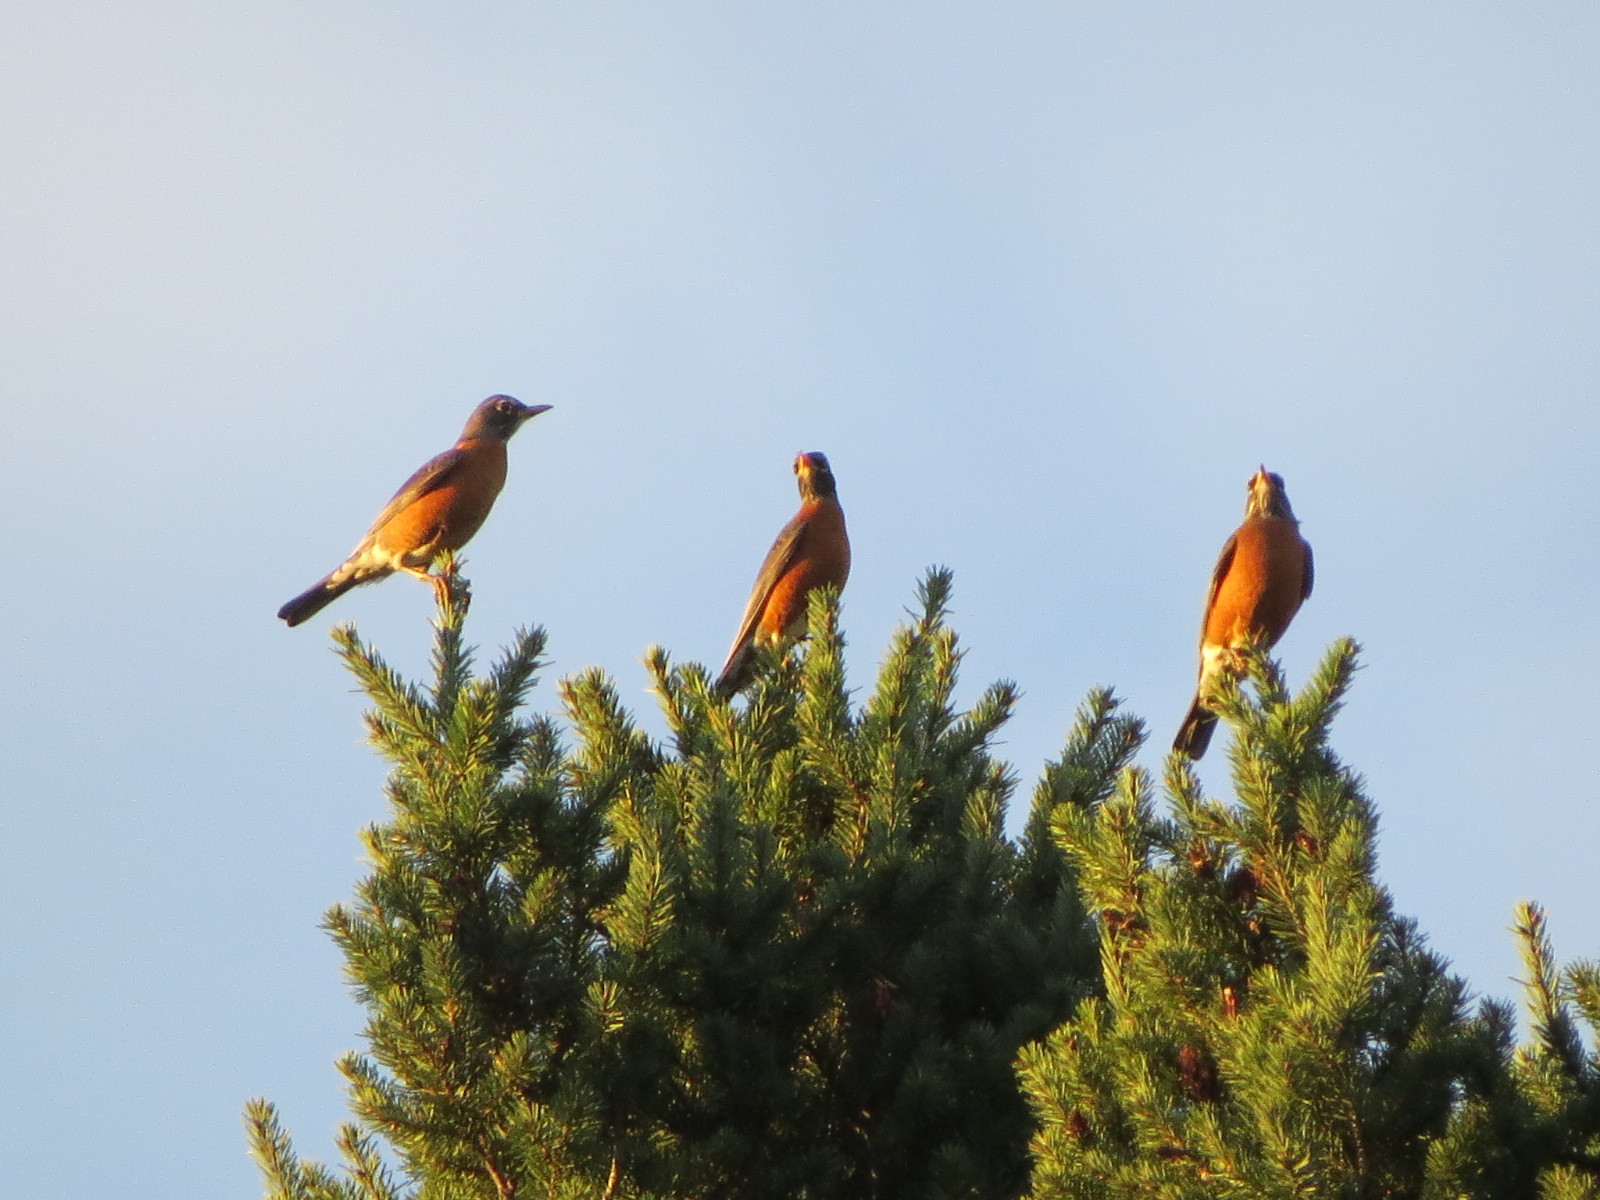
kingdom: Animalia
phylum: Chordata
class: Aves
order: Passeriformes
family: Turdidae
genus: Turdus
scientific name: Turdus migratorius
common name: American robin
